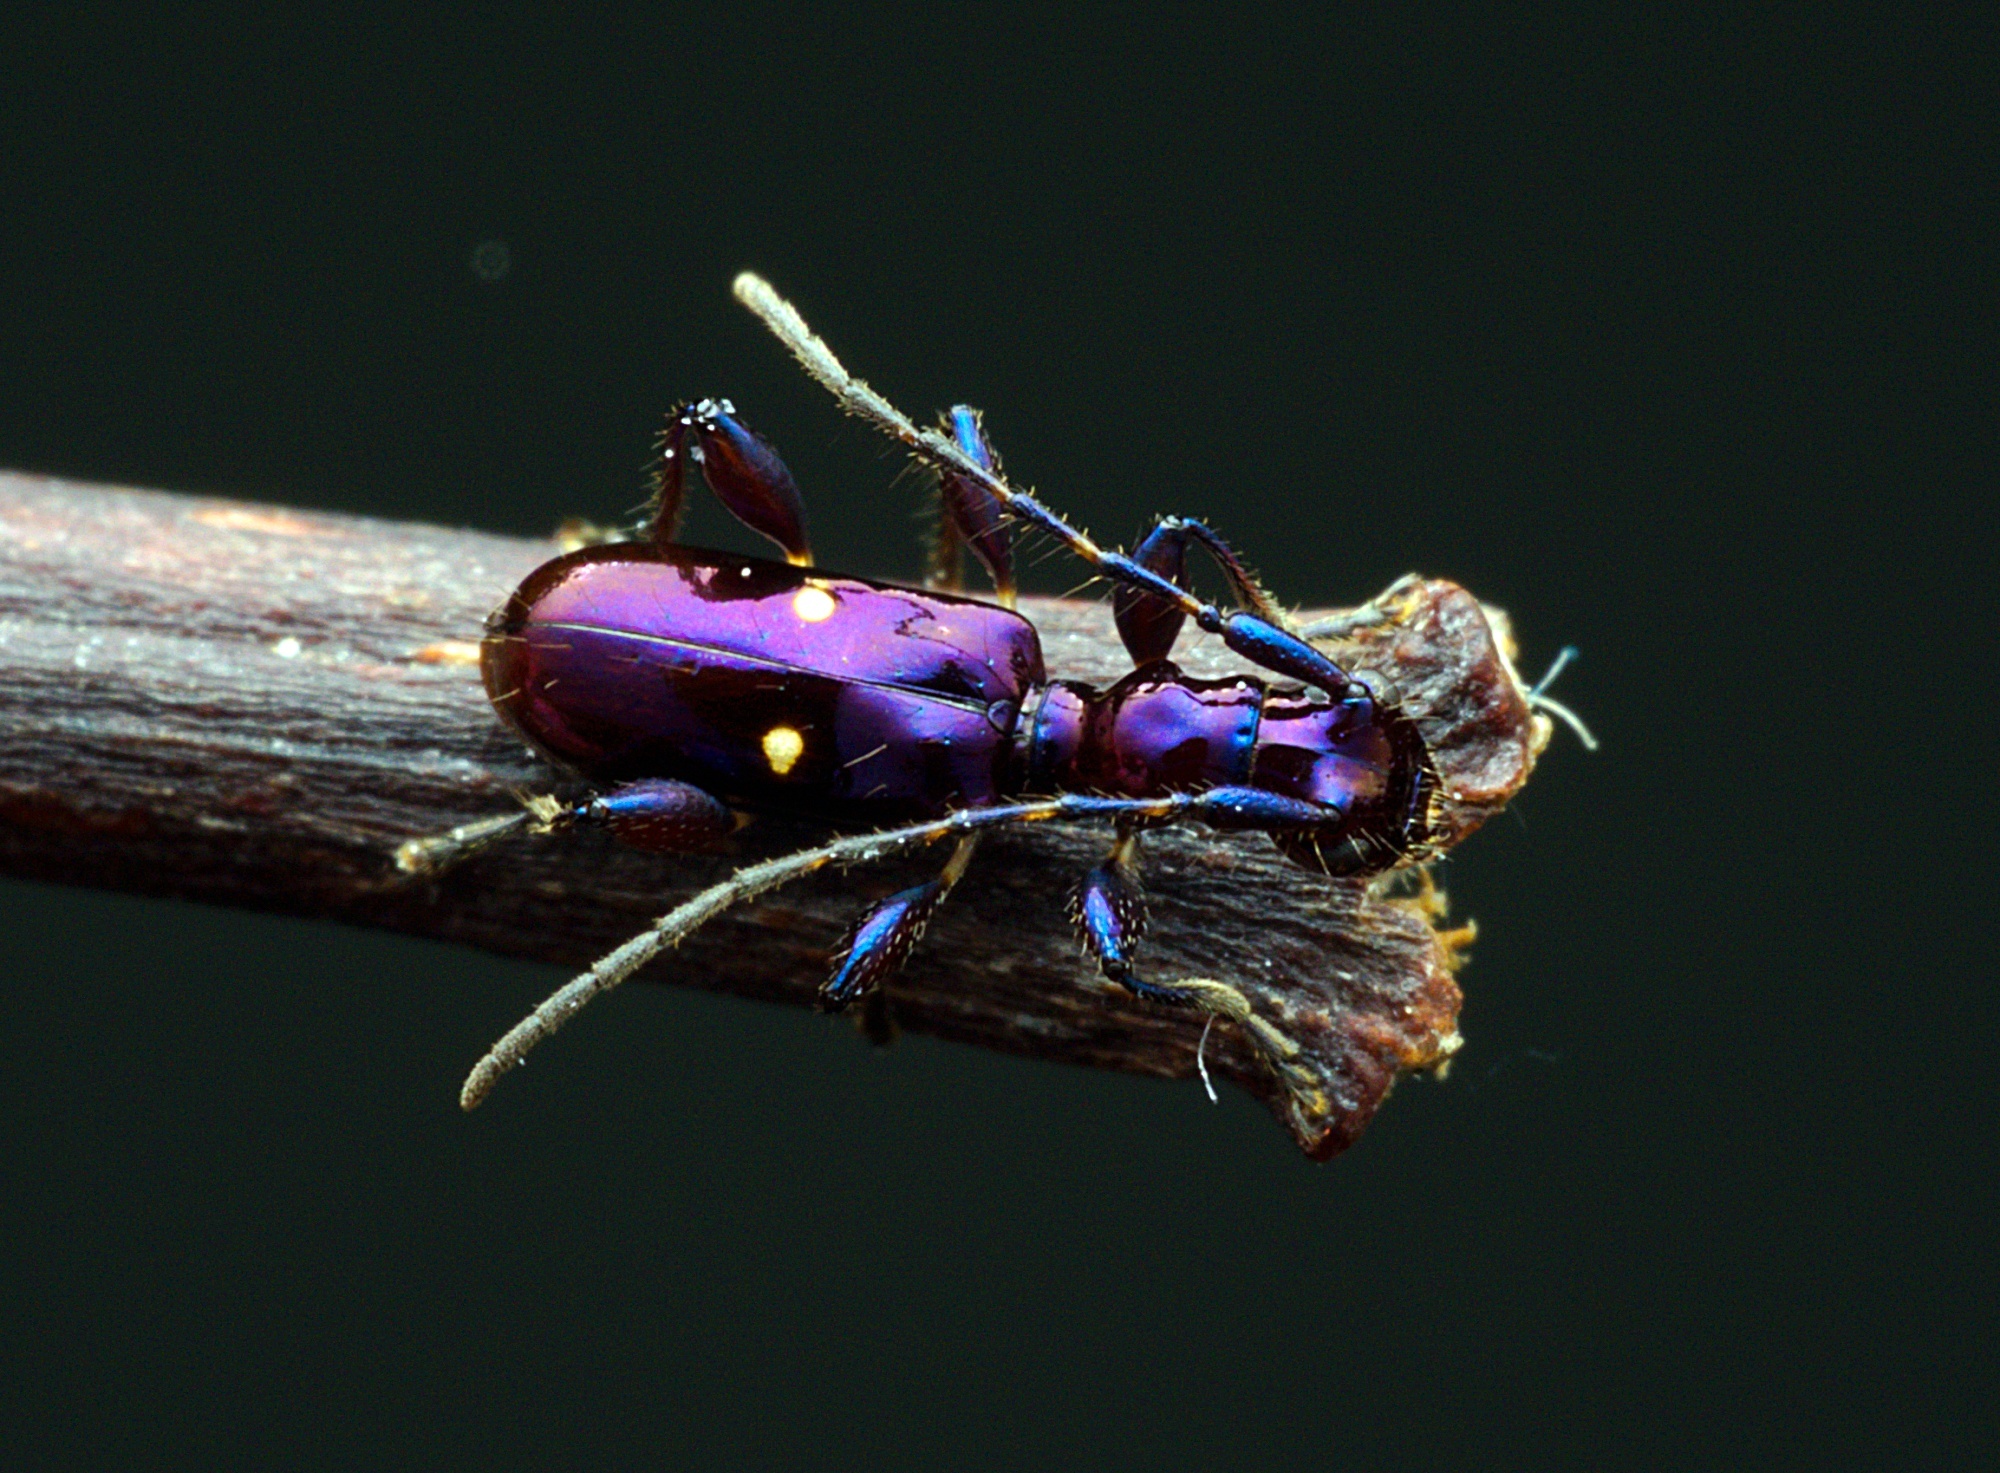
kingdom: Animalia
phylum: Arthropoda
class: Insecta
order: Coleoptera
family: Cerambycidae
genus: Zorion
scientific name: Zorion batesi
